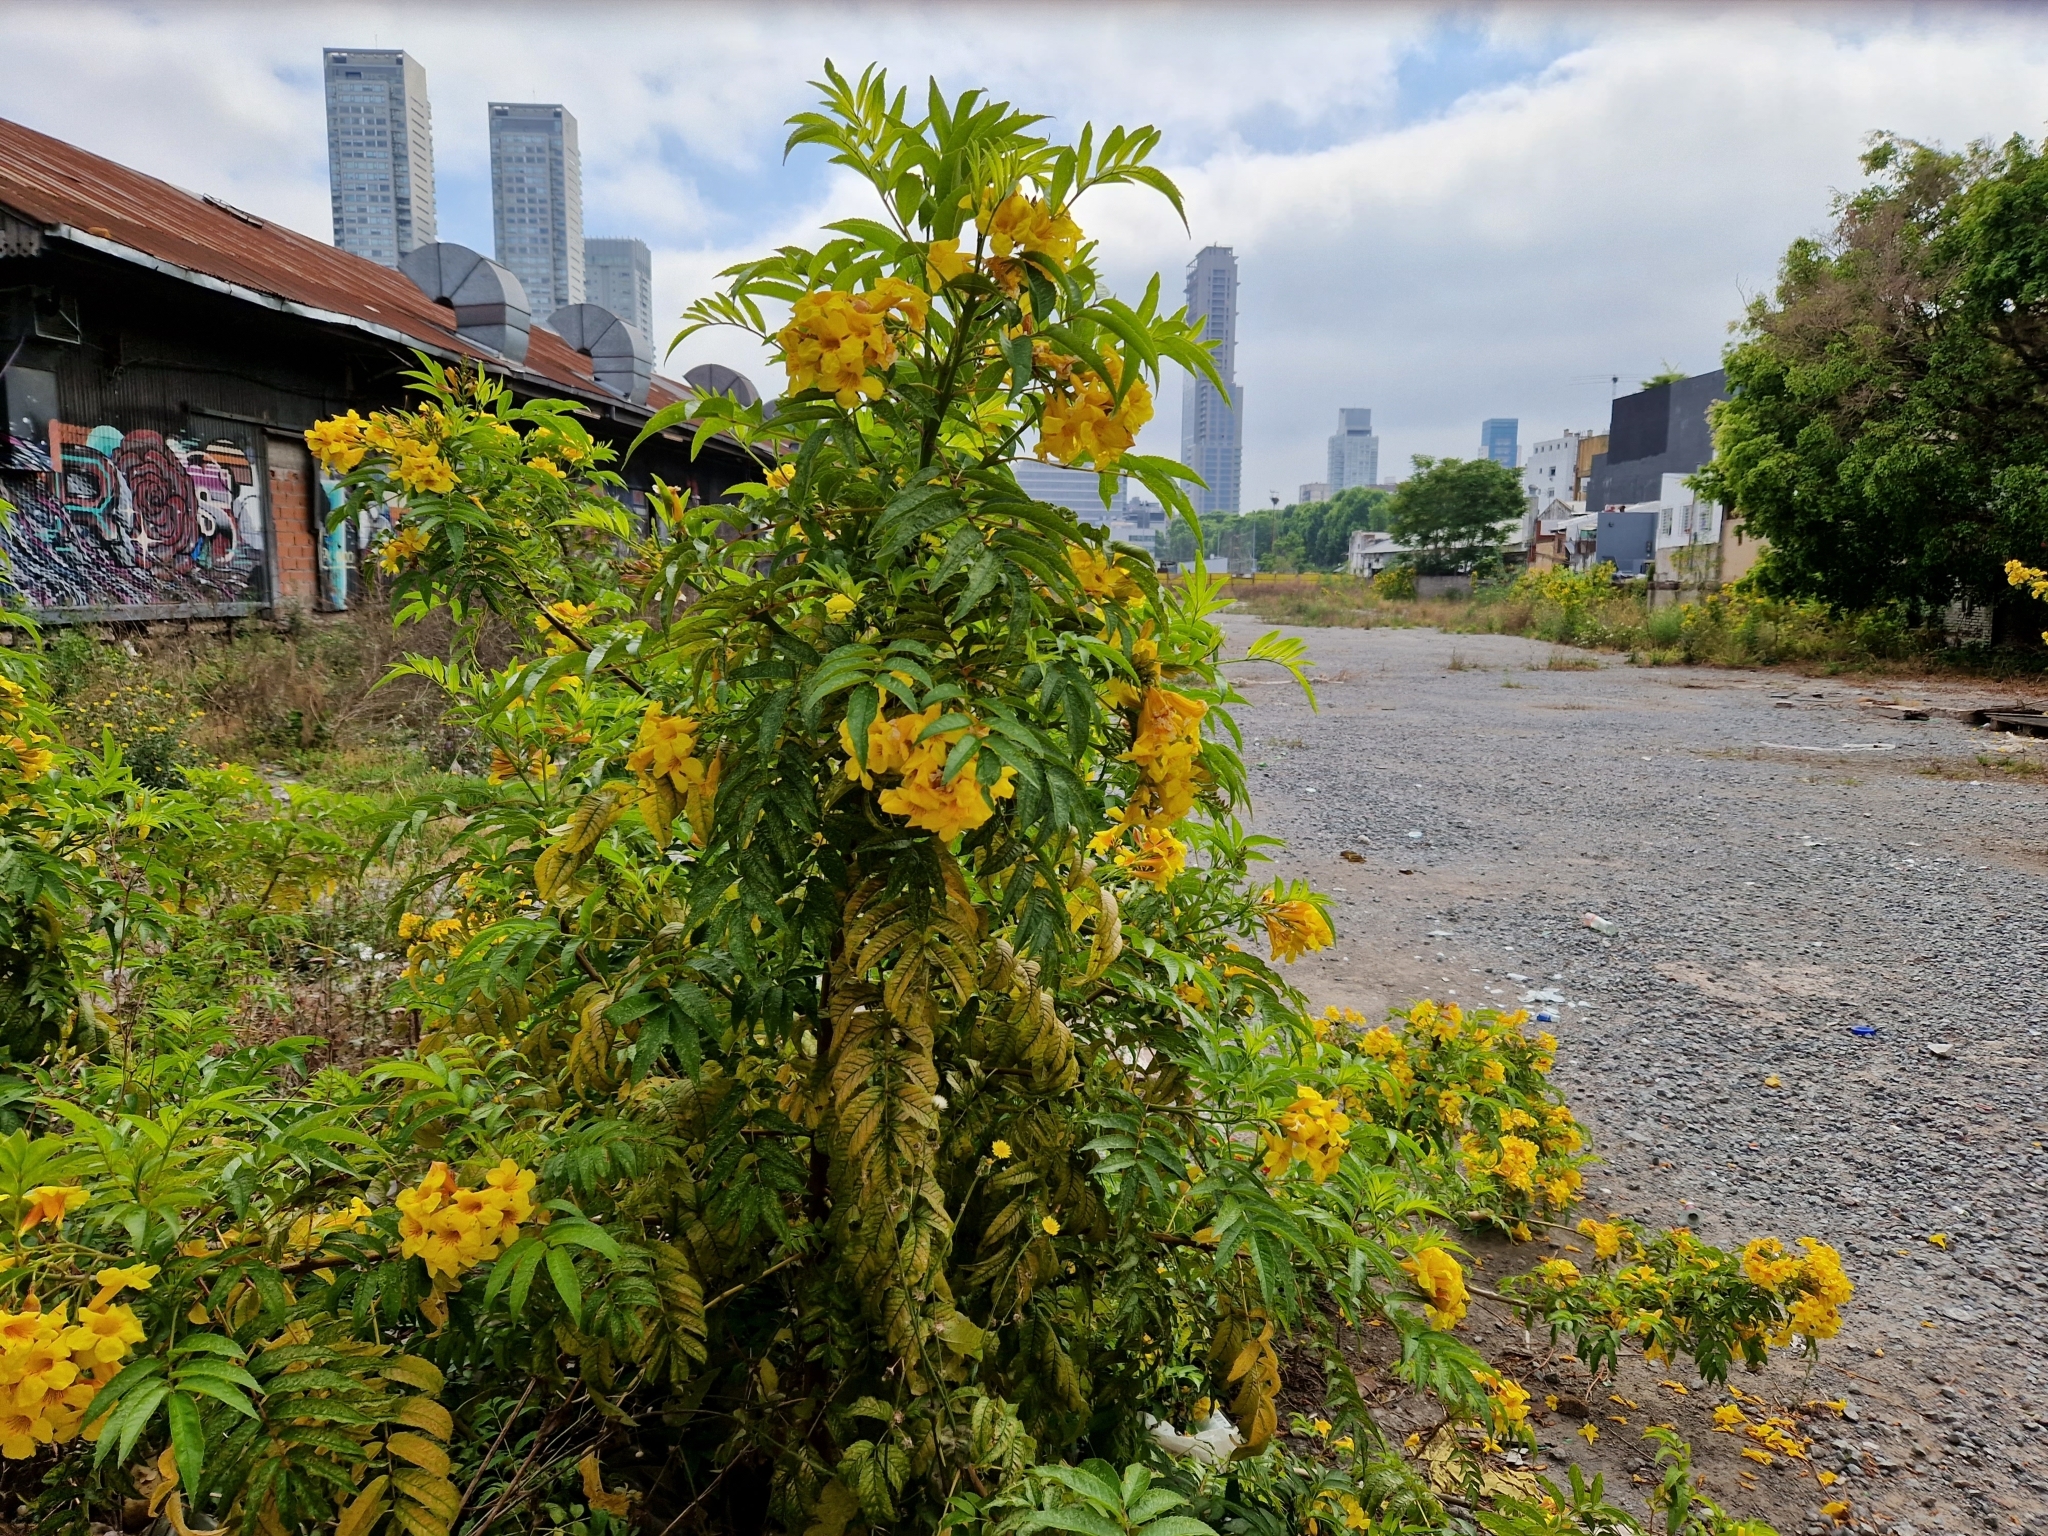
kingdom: Plantae
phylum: Tracheophyta
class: Magnoliopsida
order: Lamiales
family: Bignoniaceae
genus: Tecoma
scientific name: Tecoma stans
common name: Yellow trumpetbush
